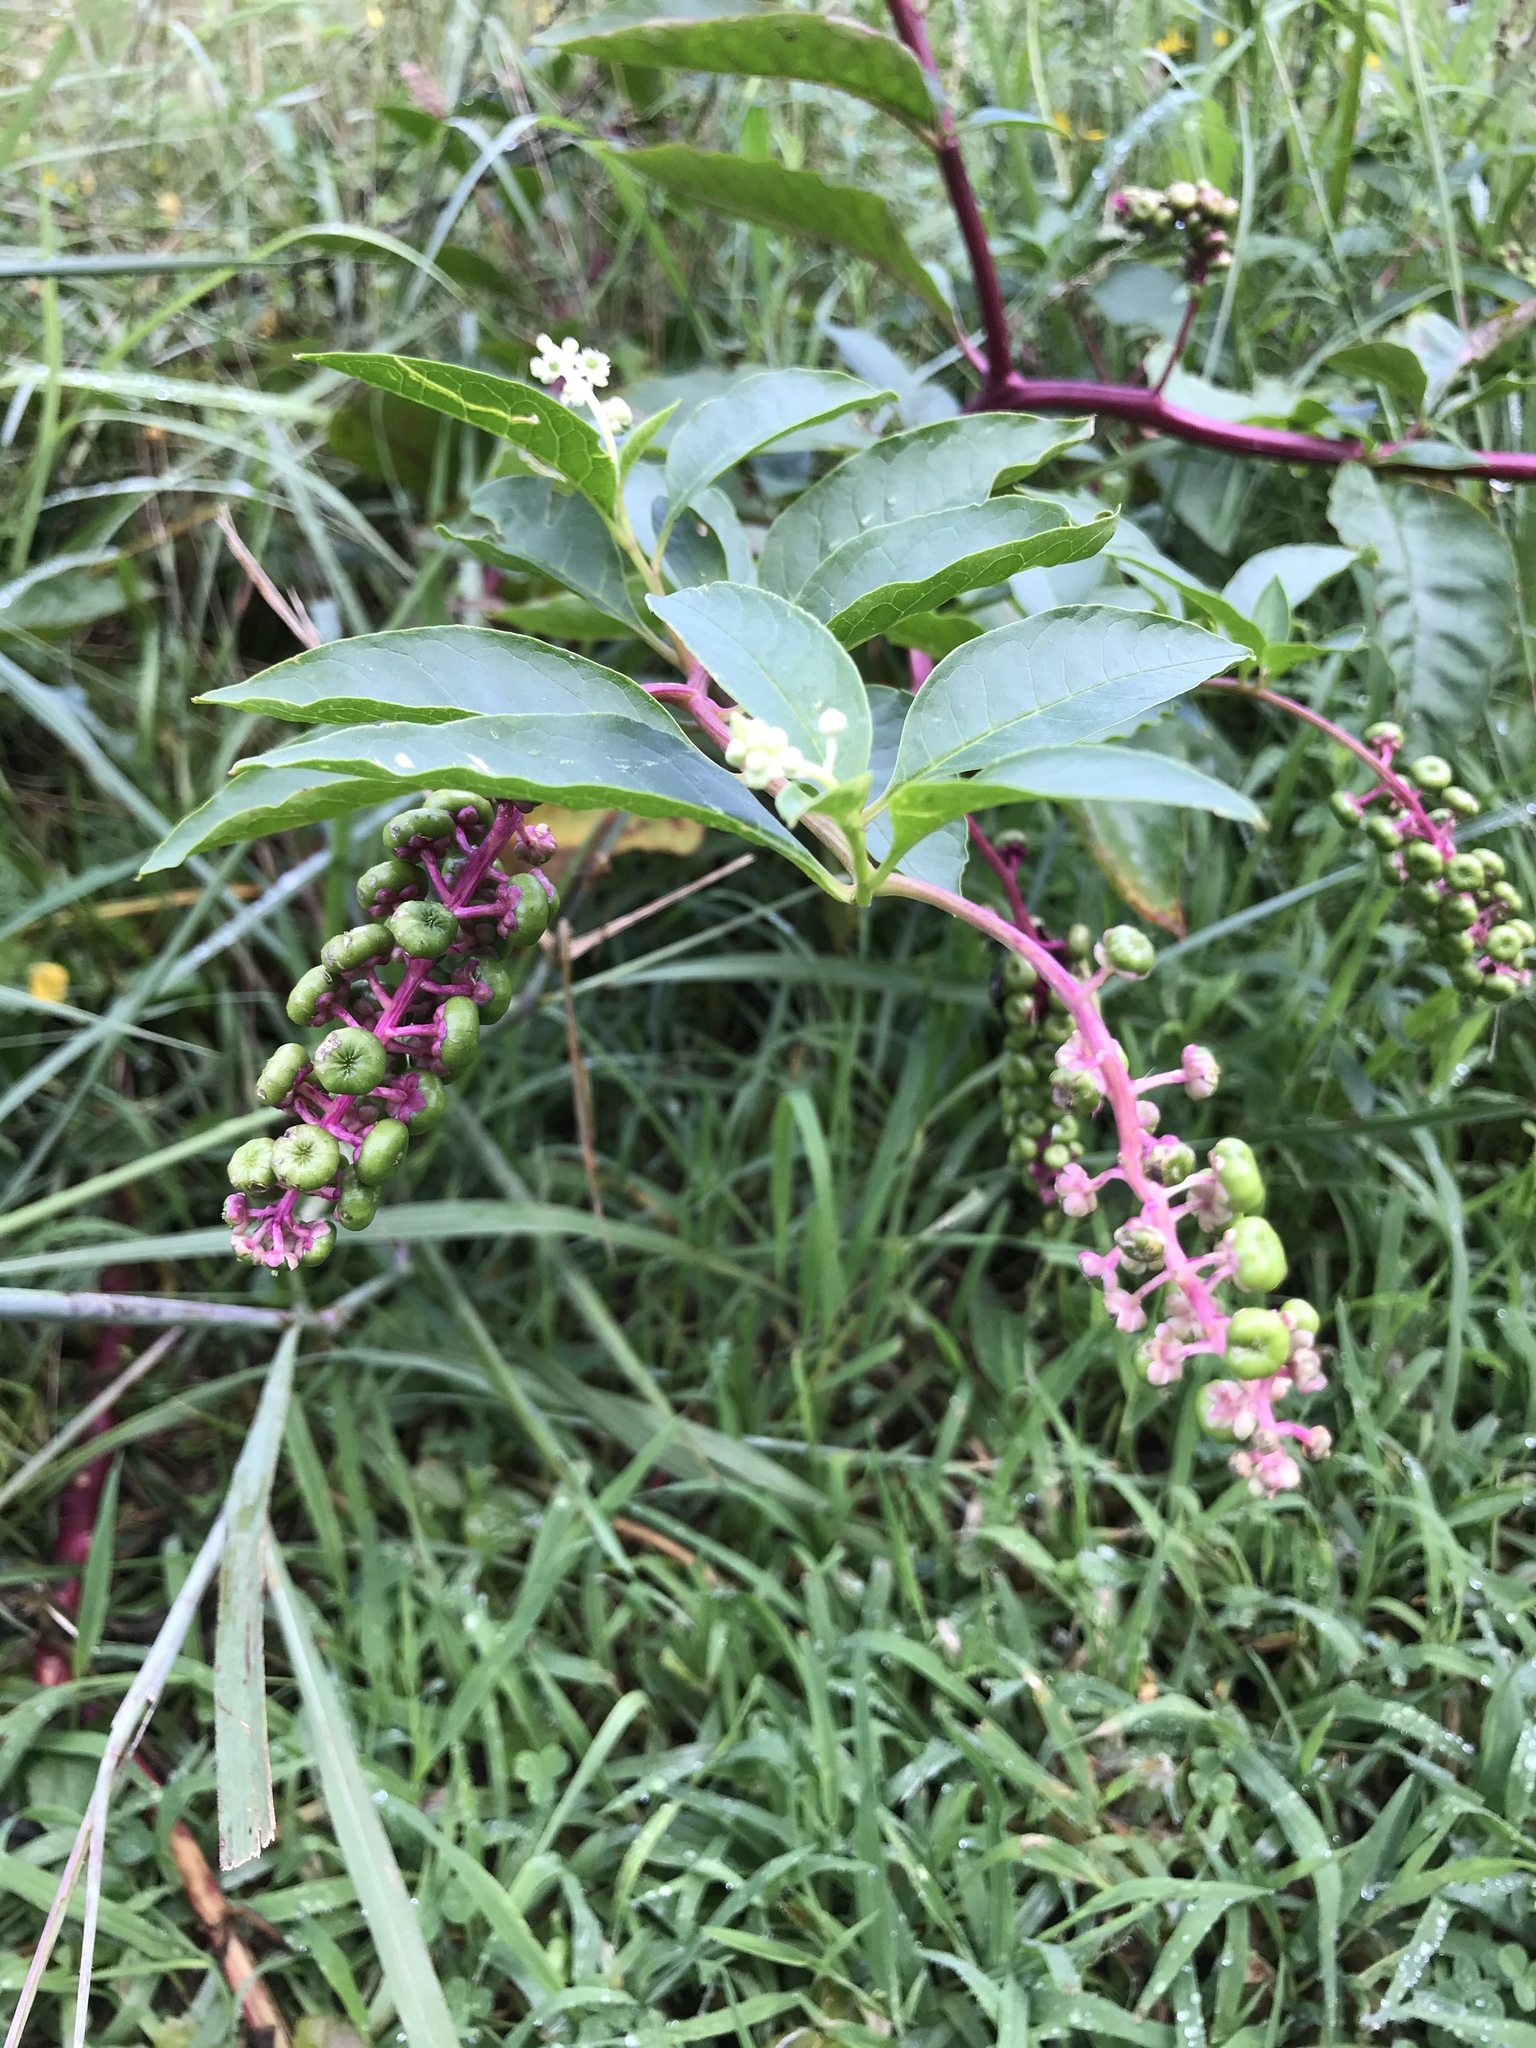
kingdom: Plantae
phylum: Tracheophyta
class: Magnoliopsida
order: Caryophyllales
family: Phytolaccaceae
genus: Phytolacca
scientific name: Phytolacca americana
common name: American pokeweed
